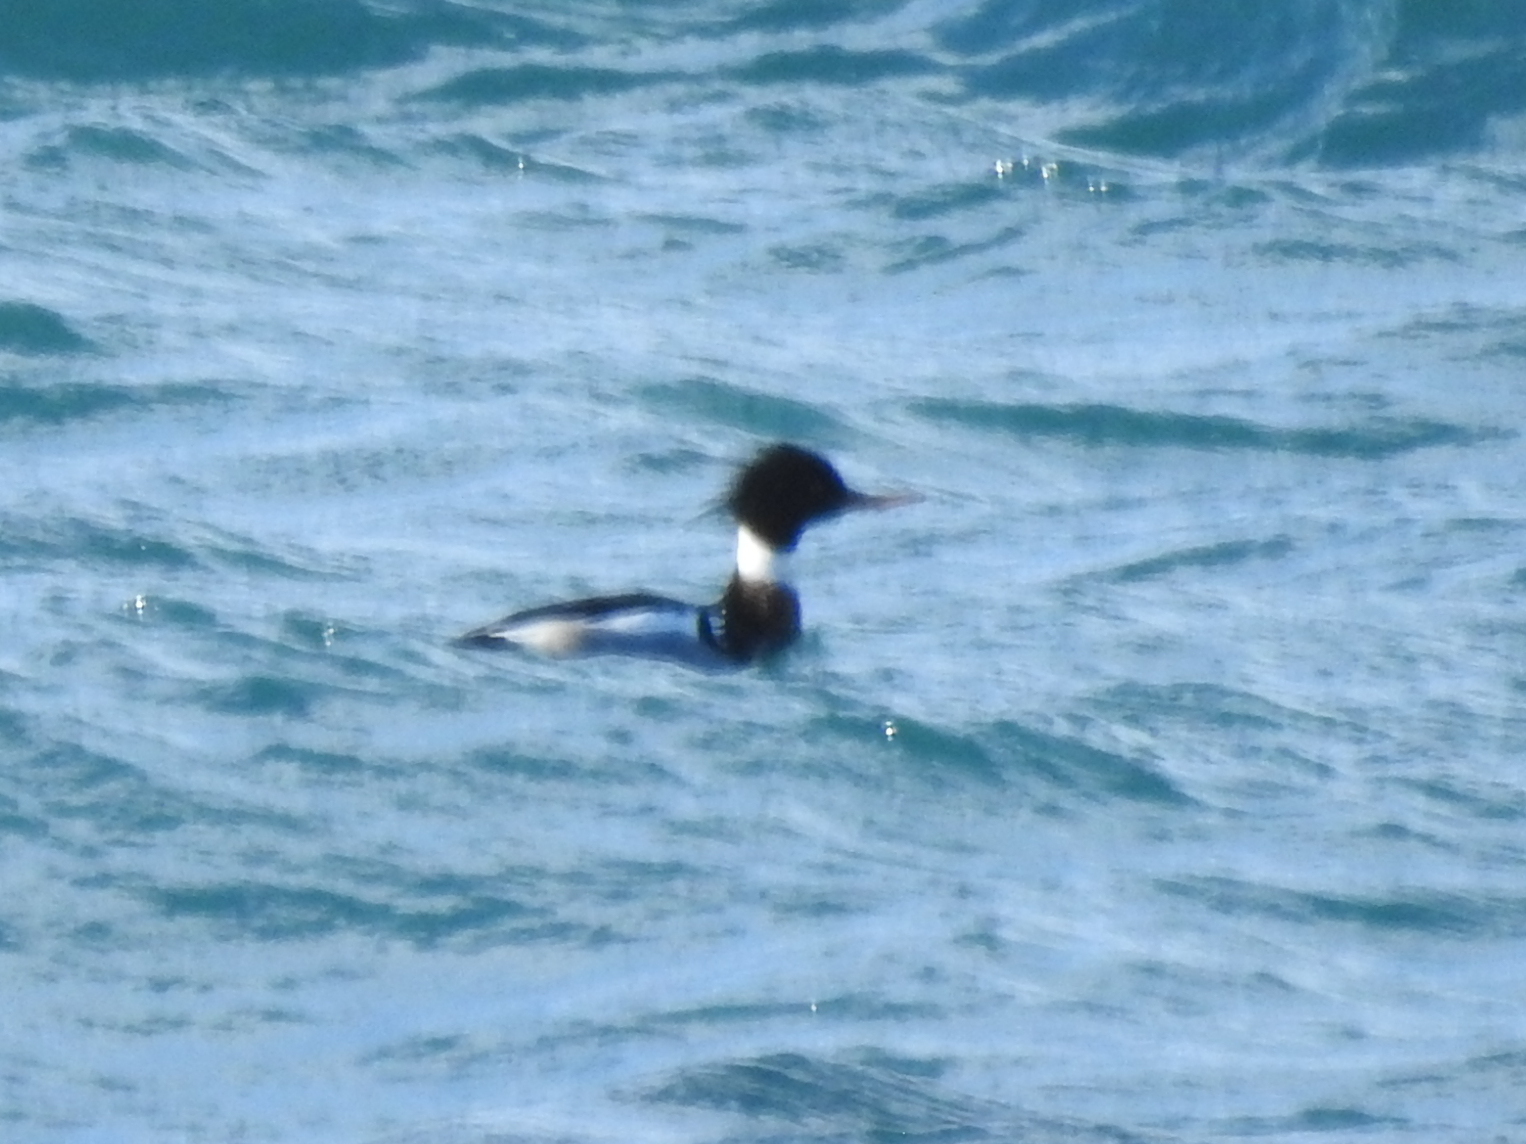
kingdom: Animalia
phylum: Chordata
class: Aves
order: Anseriformes
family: Anatidae
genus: Mergus
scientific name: Mergus serrator
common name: Red-breasted merganser
